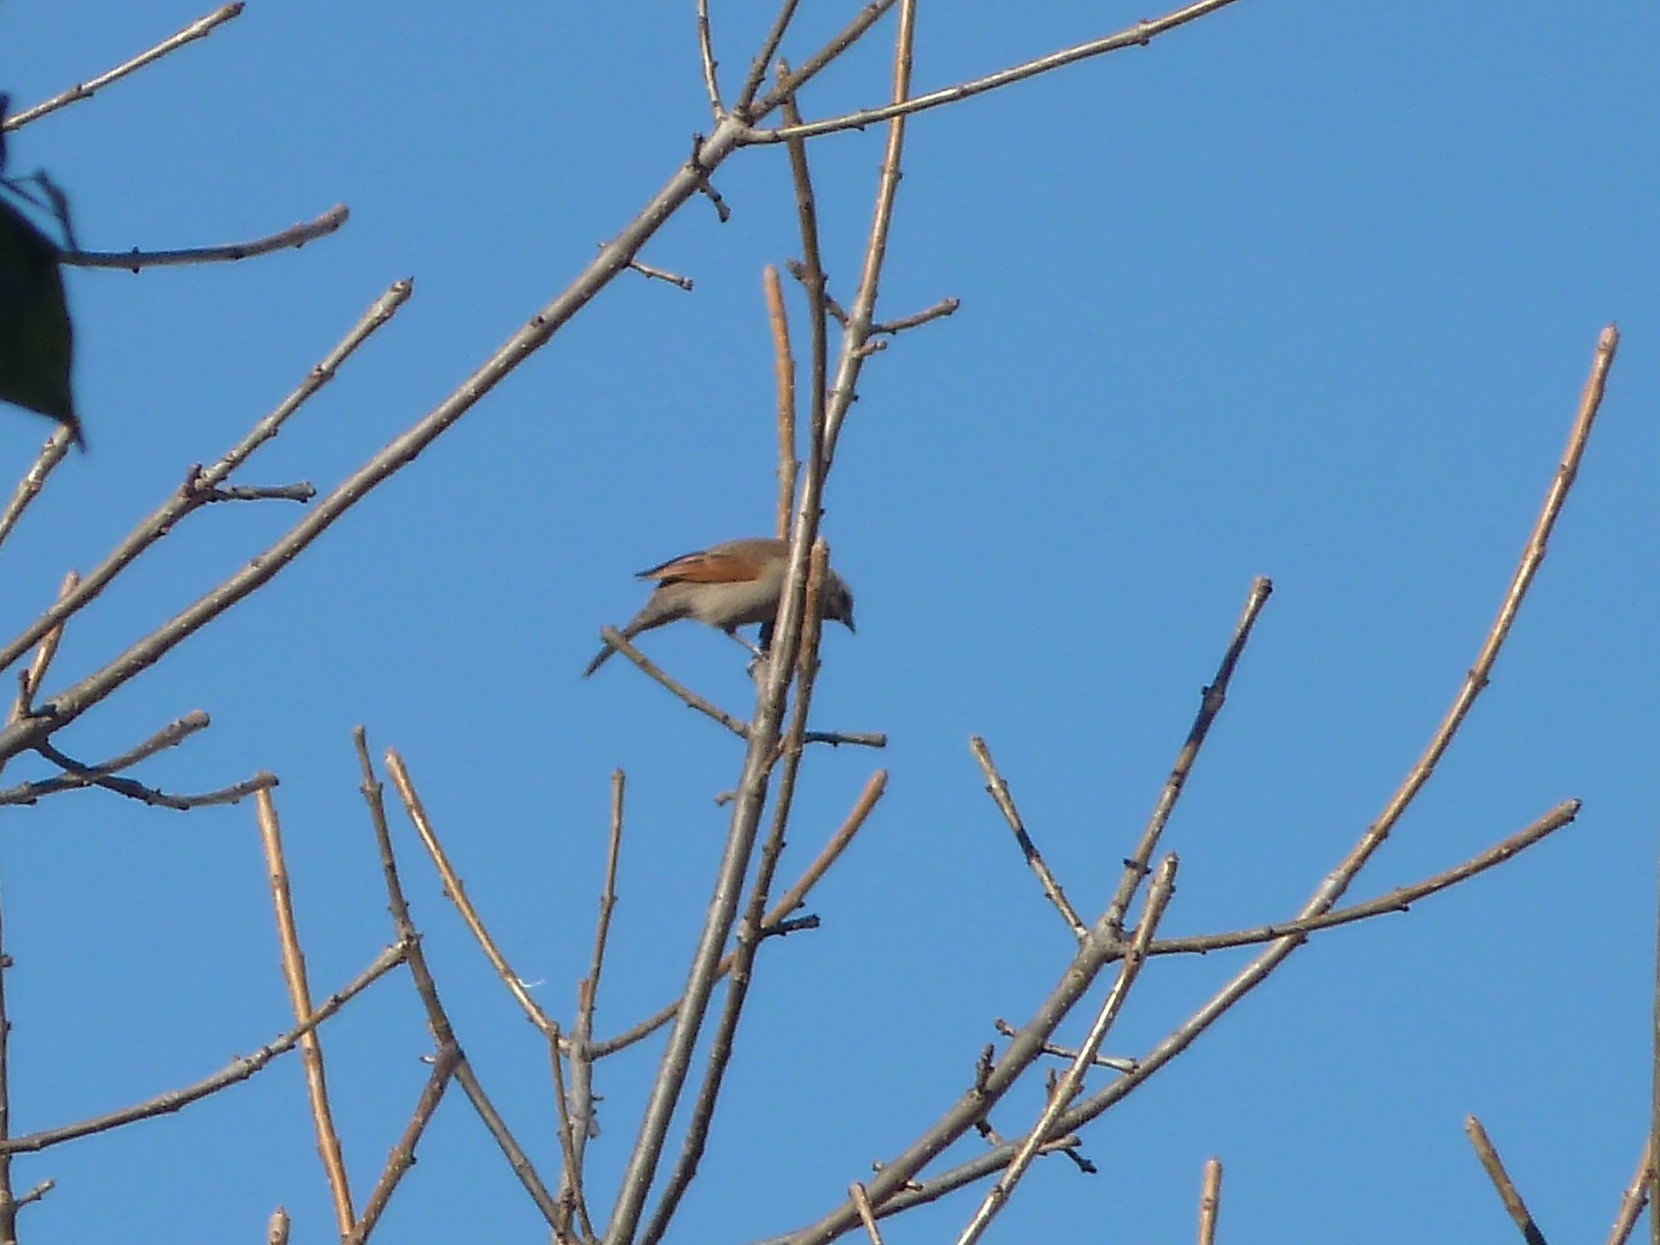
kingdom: Animalia
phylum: Chordata
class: Aves
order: Passeriformes
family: Icteridae
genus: Agelaioides
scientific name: Agelaioides badius
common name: Baywing
